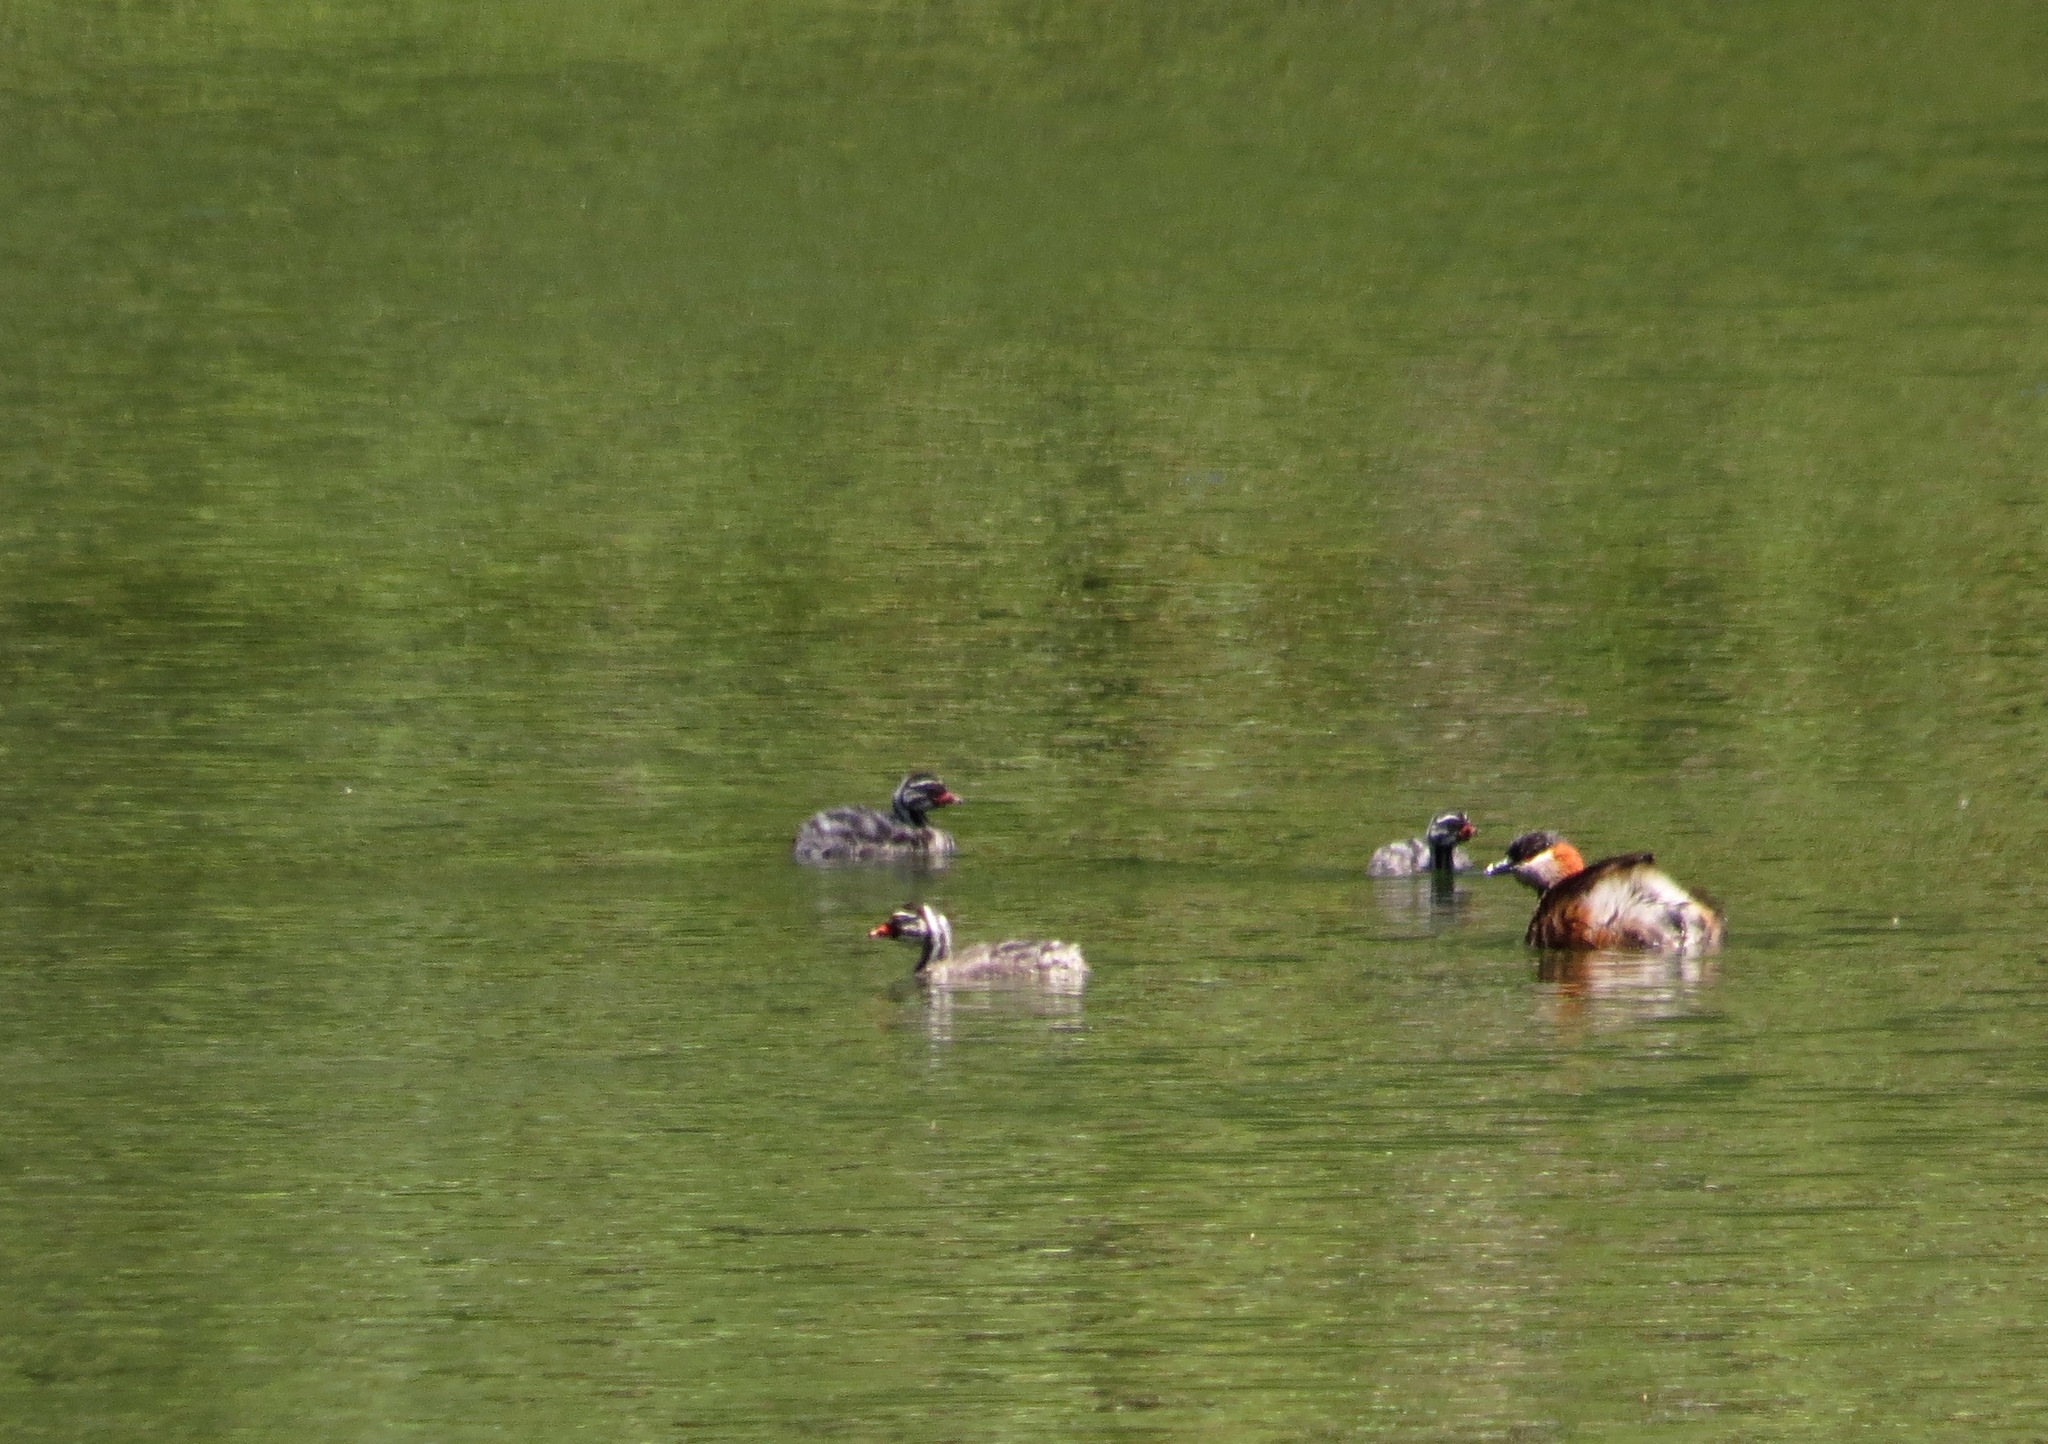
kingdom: Animalia
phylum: Chordata
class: Aves
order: Podicipediformes
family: Podicipedidae
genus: Tachybaptus
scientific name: Tachybaptus pelzelnii
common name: Madagascar grebe
